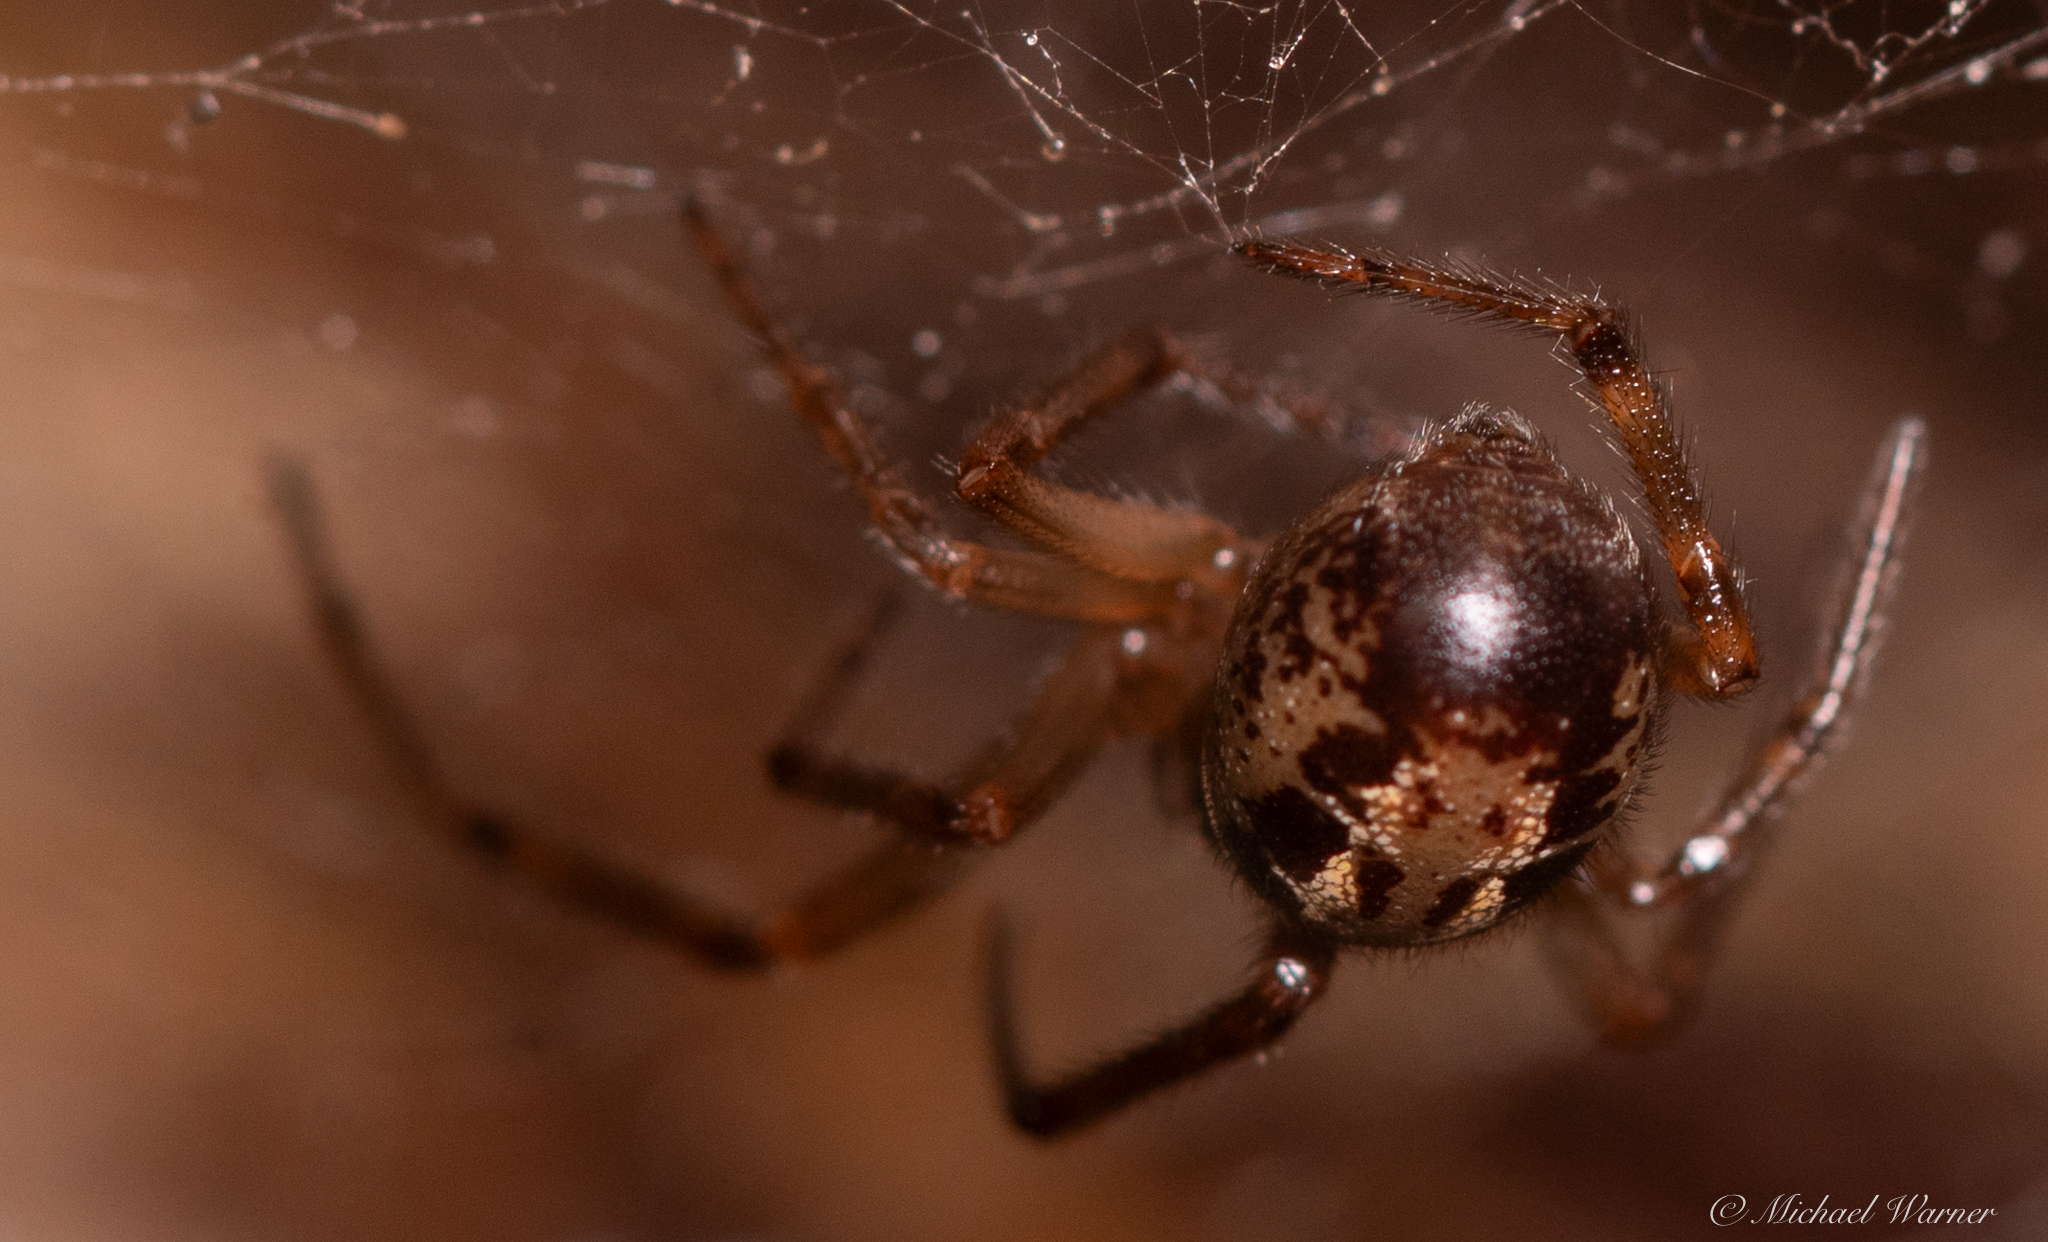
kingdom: Animalia
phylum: Arthropoda
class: Arachnida
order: Araneae
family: Theridiidae
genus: Steatoda
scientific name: Steatoda nobilis
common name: Cobweb weaver
